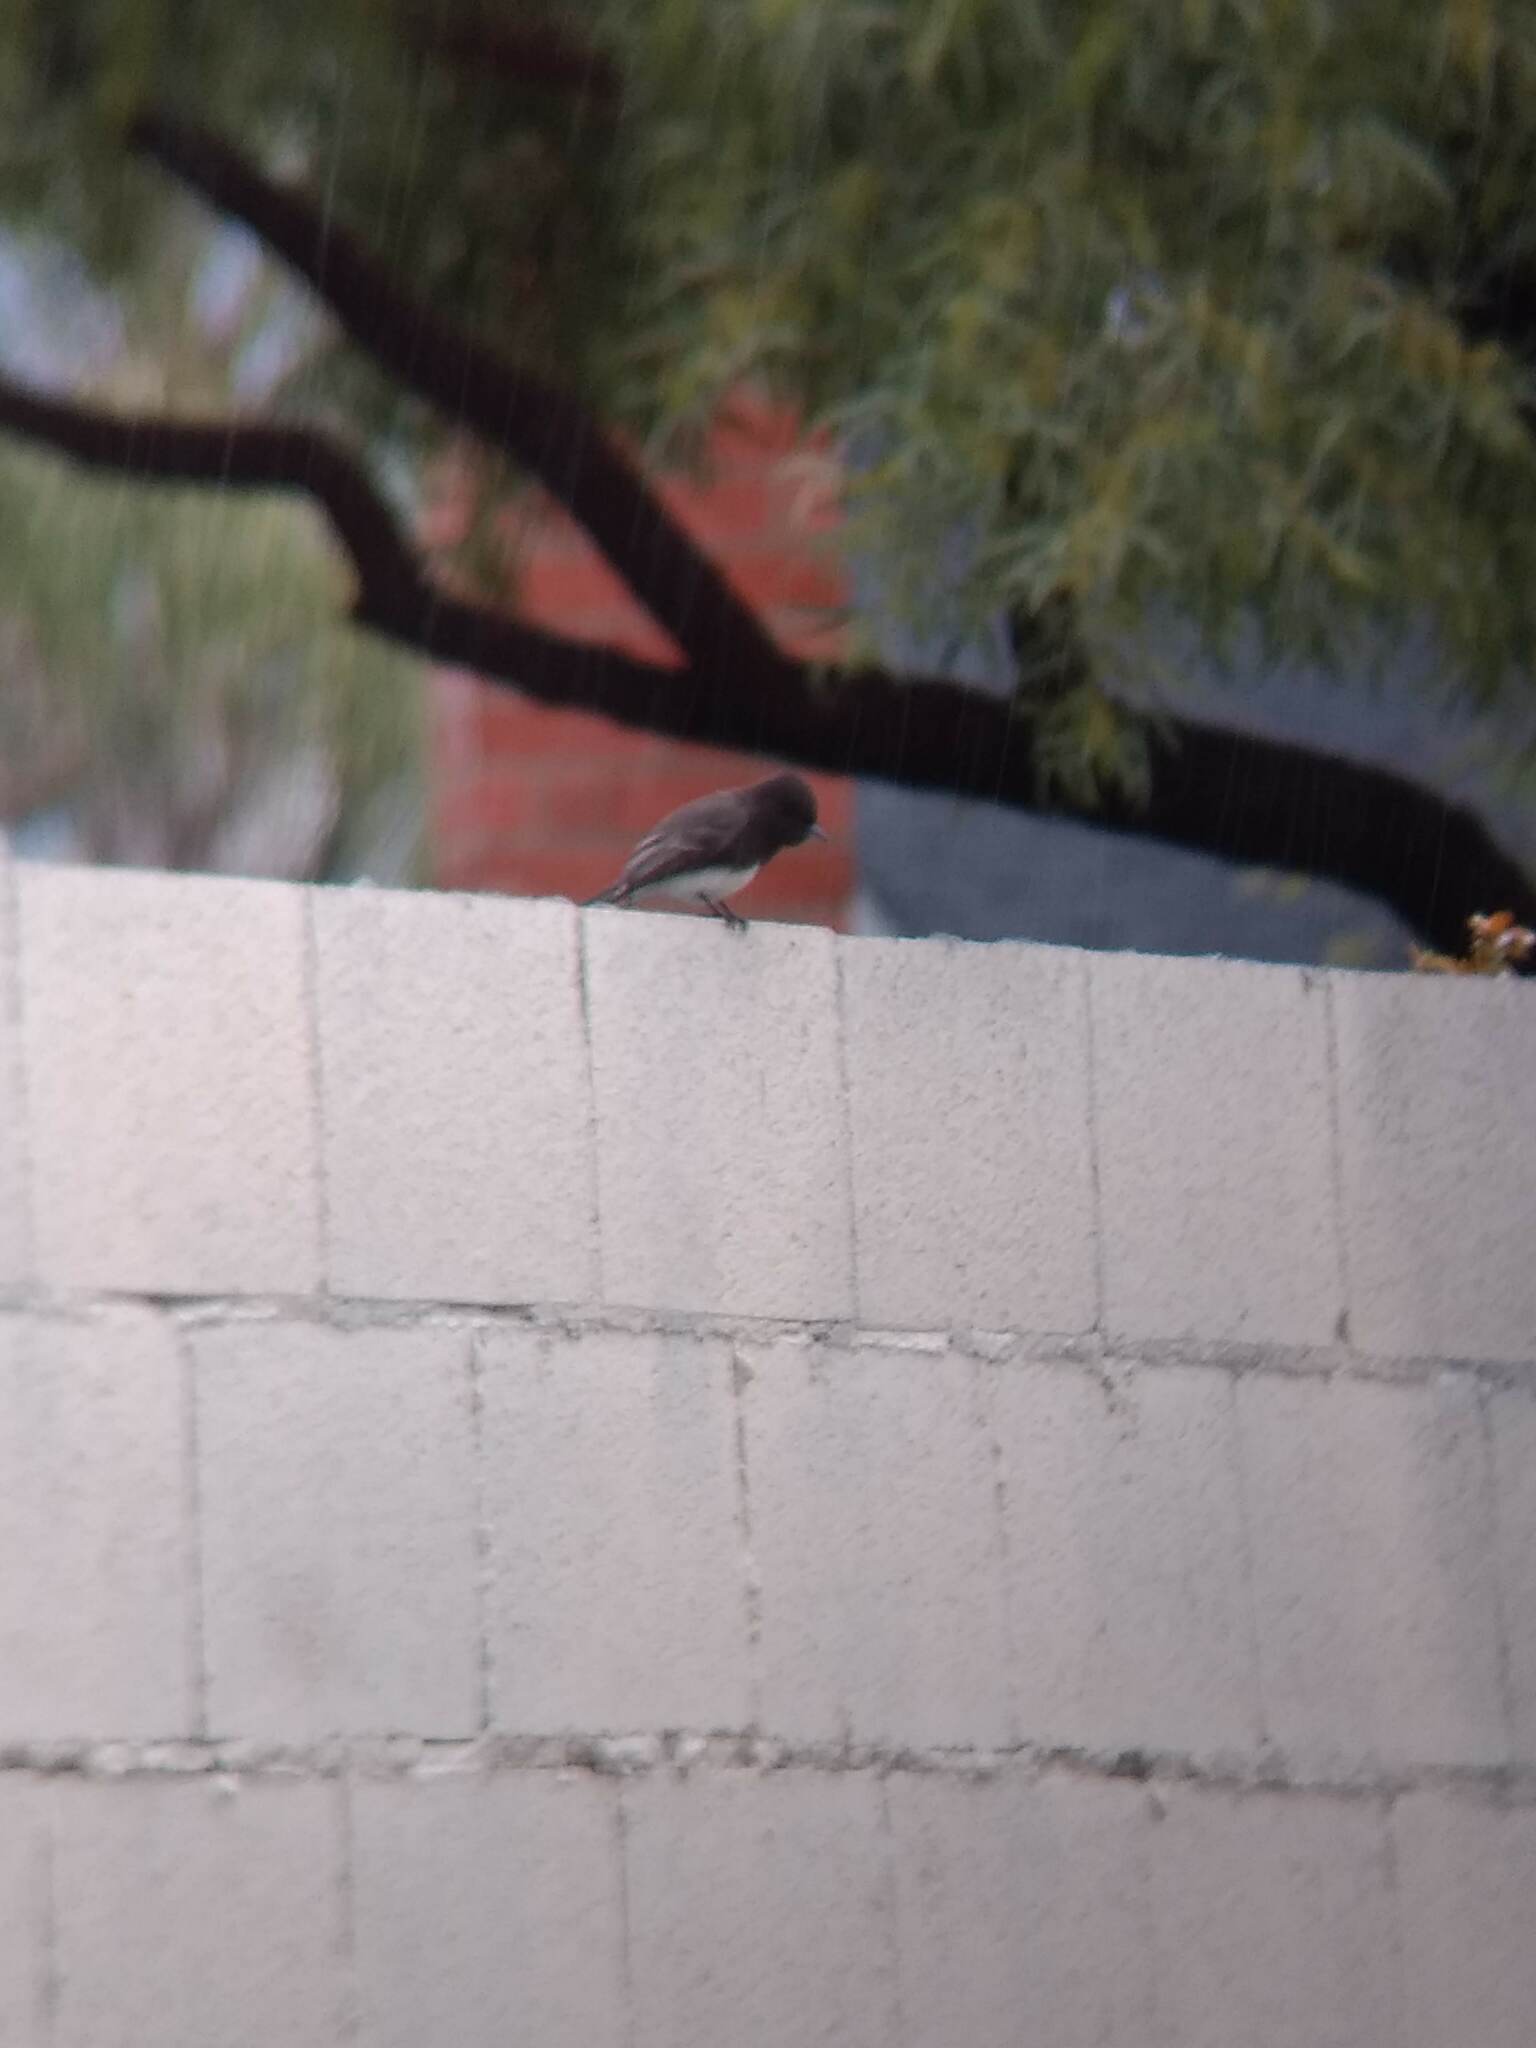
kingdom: Animalia
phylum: Chordata
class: Aves
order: Passeriformes
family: Tyrannidae
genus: Sayornis
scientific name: Sayornis nigricans
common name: Black phoebe
